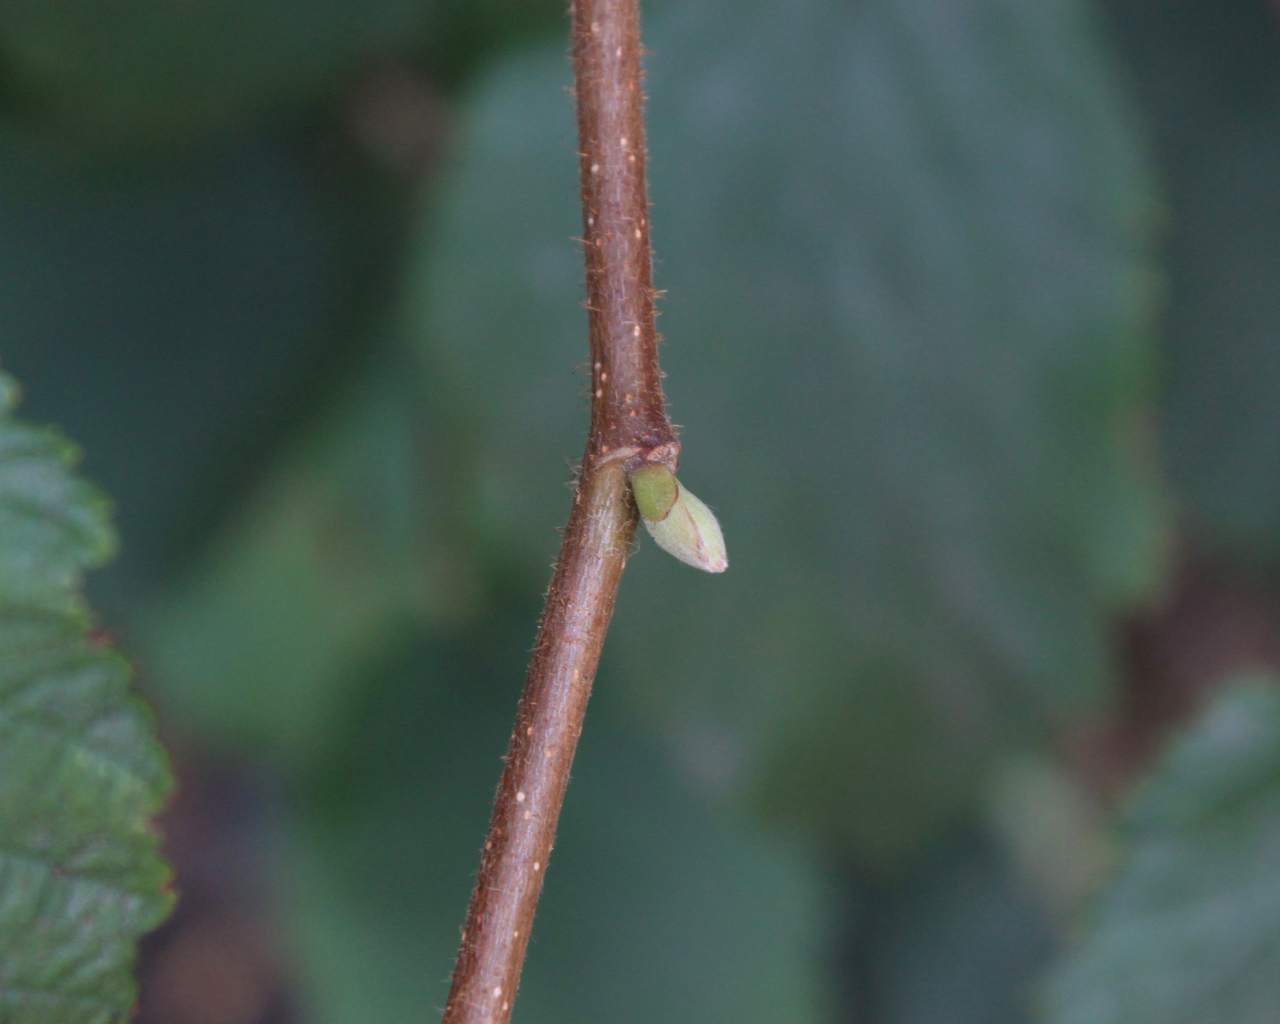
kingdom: Plantae
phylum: Tracheophyta
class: Magnoliopsida
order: Fagales
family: Betulaceae
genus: Corylus
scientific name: Corylus cornuta
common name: Beaked hazel
